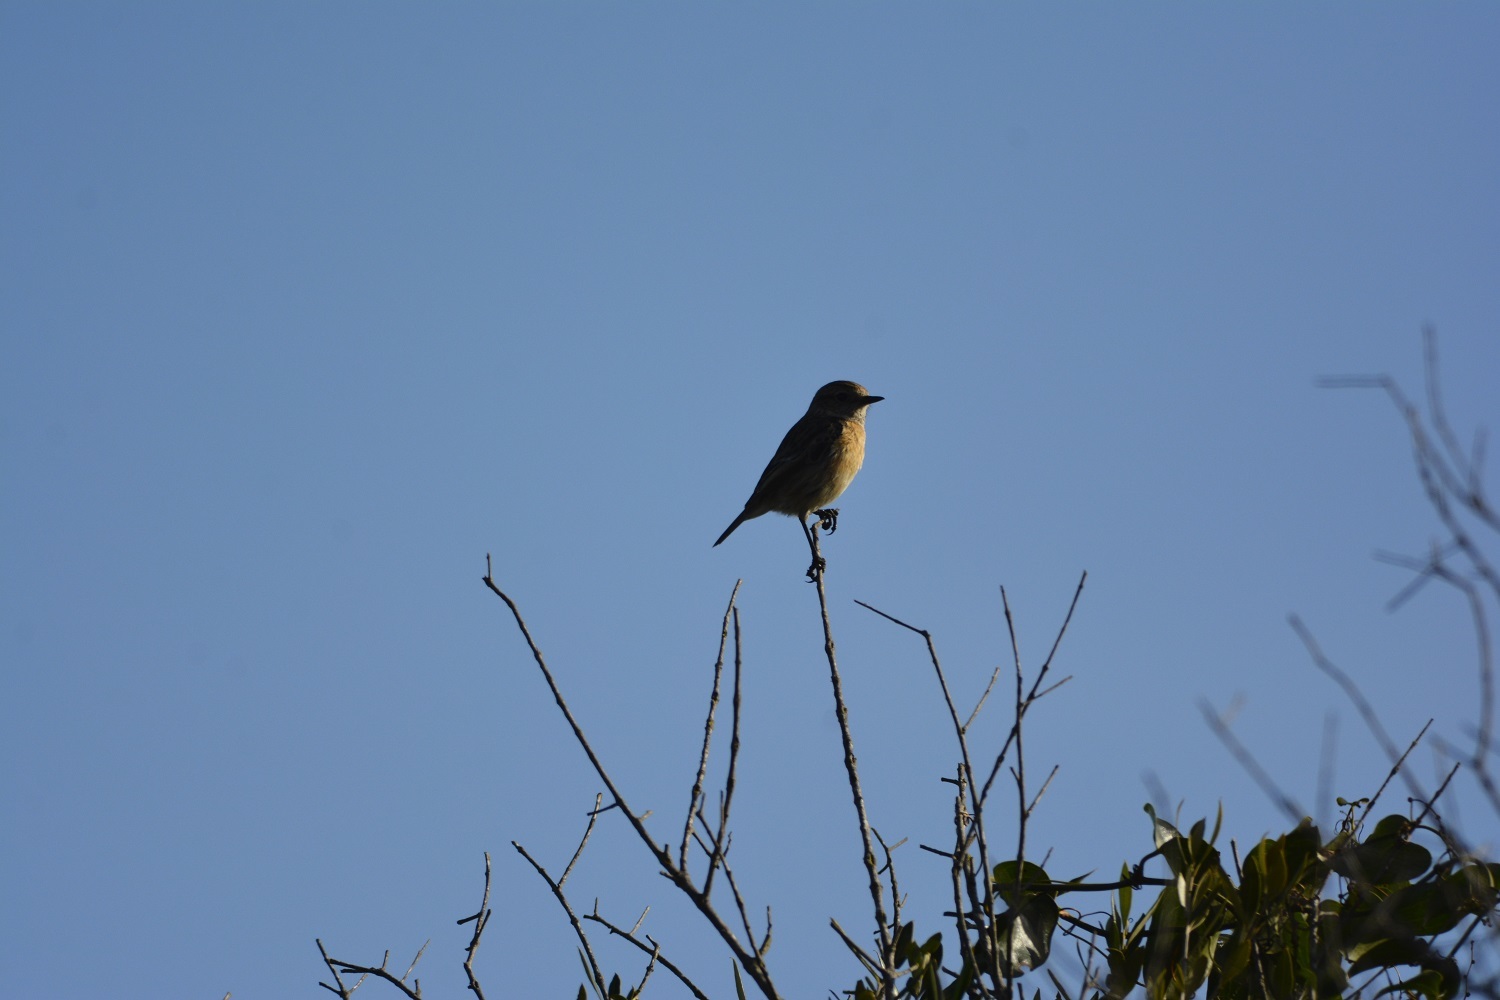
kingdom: Animalia
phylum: Chordata
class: Aves
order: Passeriformes
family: Muscicapidae
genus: Saxicola
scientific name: Saxicola rubicola
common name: European stonechat
